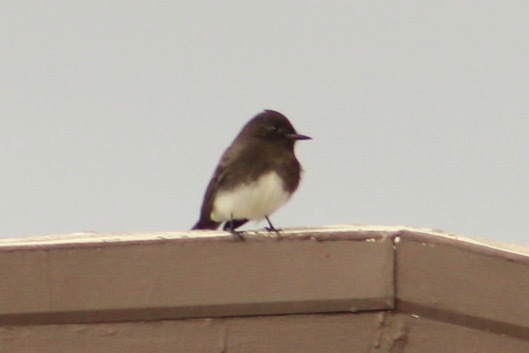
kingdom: Animalia
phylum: Chordata
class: Aves
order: Passeriformes
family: Tyrannidae
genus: Sayornis
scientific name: Sayornis nigricans
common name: Black phoebe
